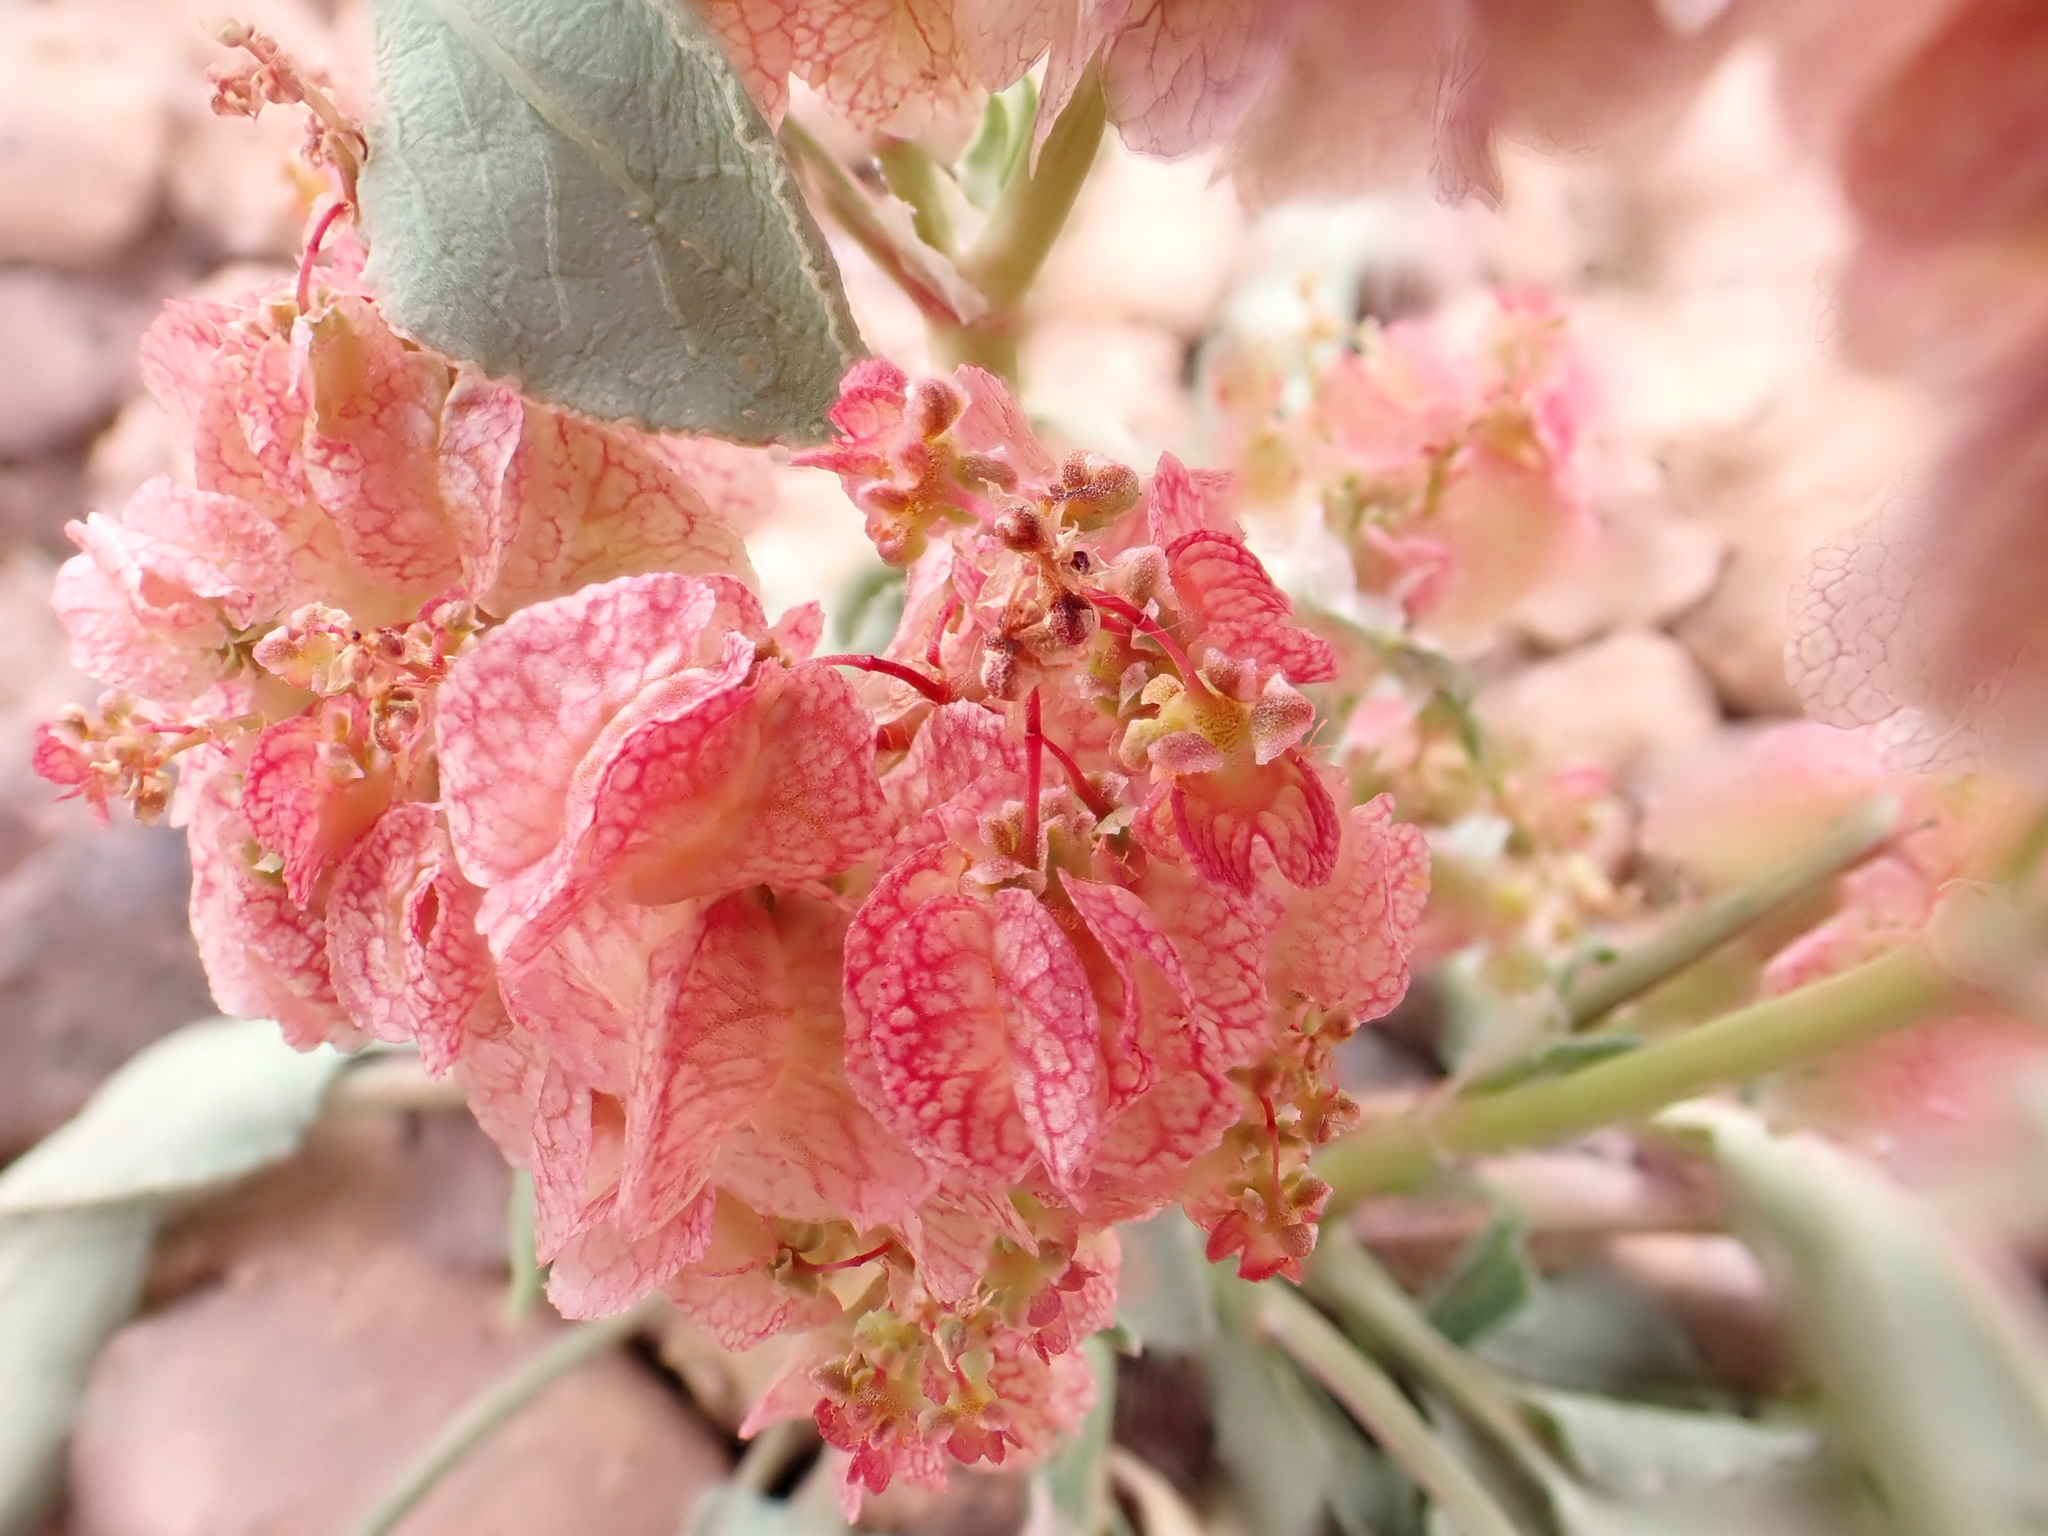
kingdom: Plantae
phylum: Tracheophyta
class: Magnoliopsida
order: Caryophyllales
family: Polygonaceae
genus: Rumex
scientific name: Rumex vesicarius
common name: Bladder dock
